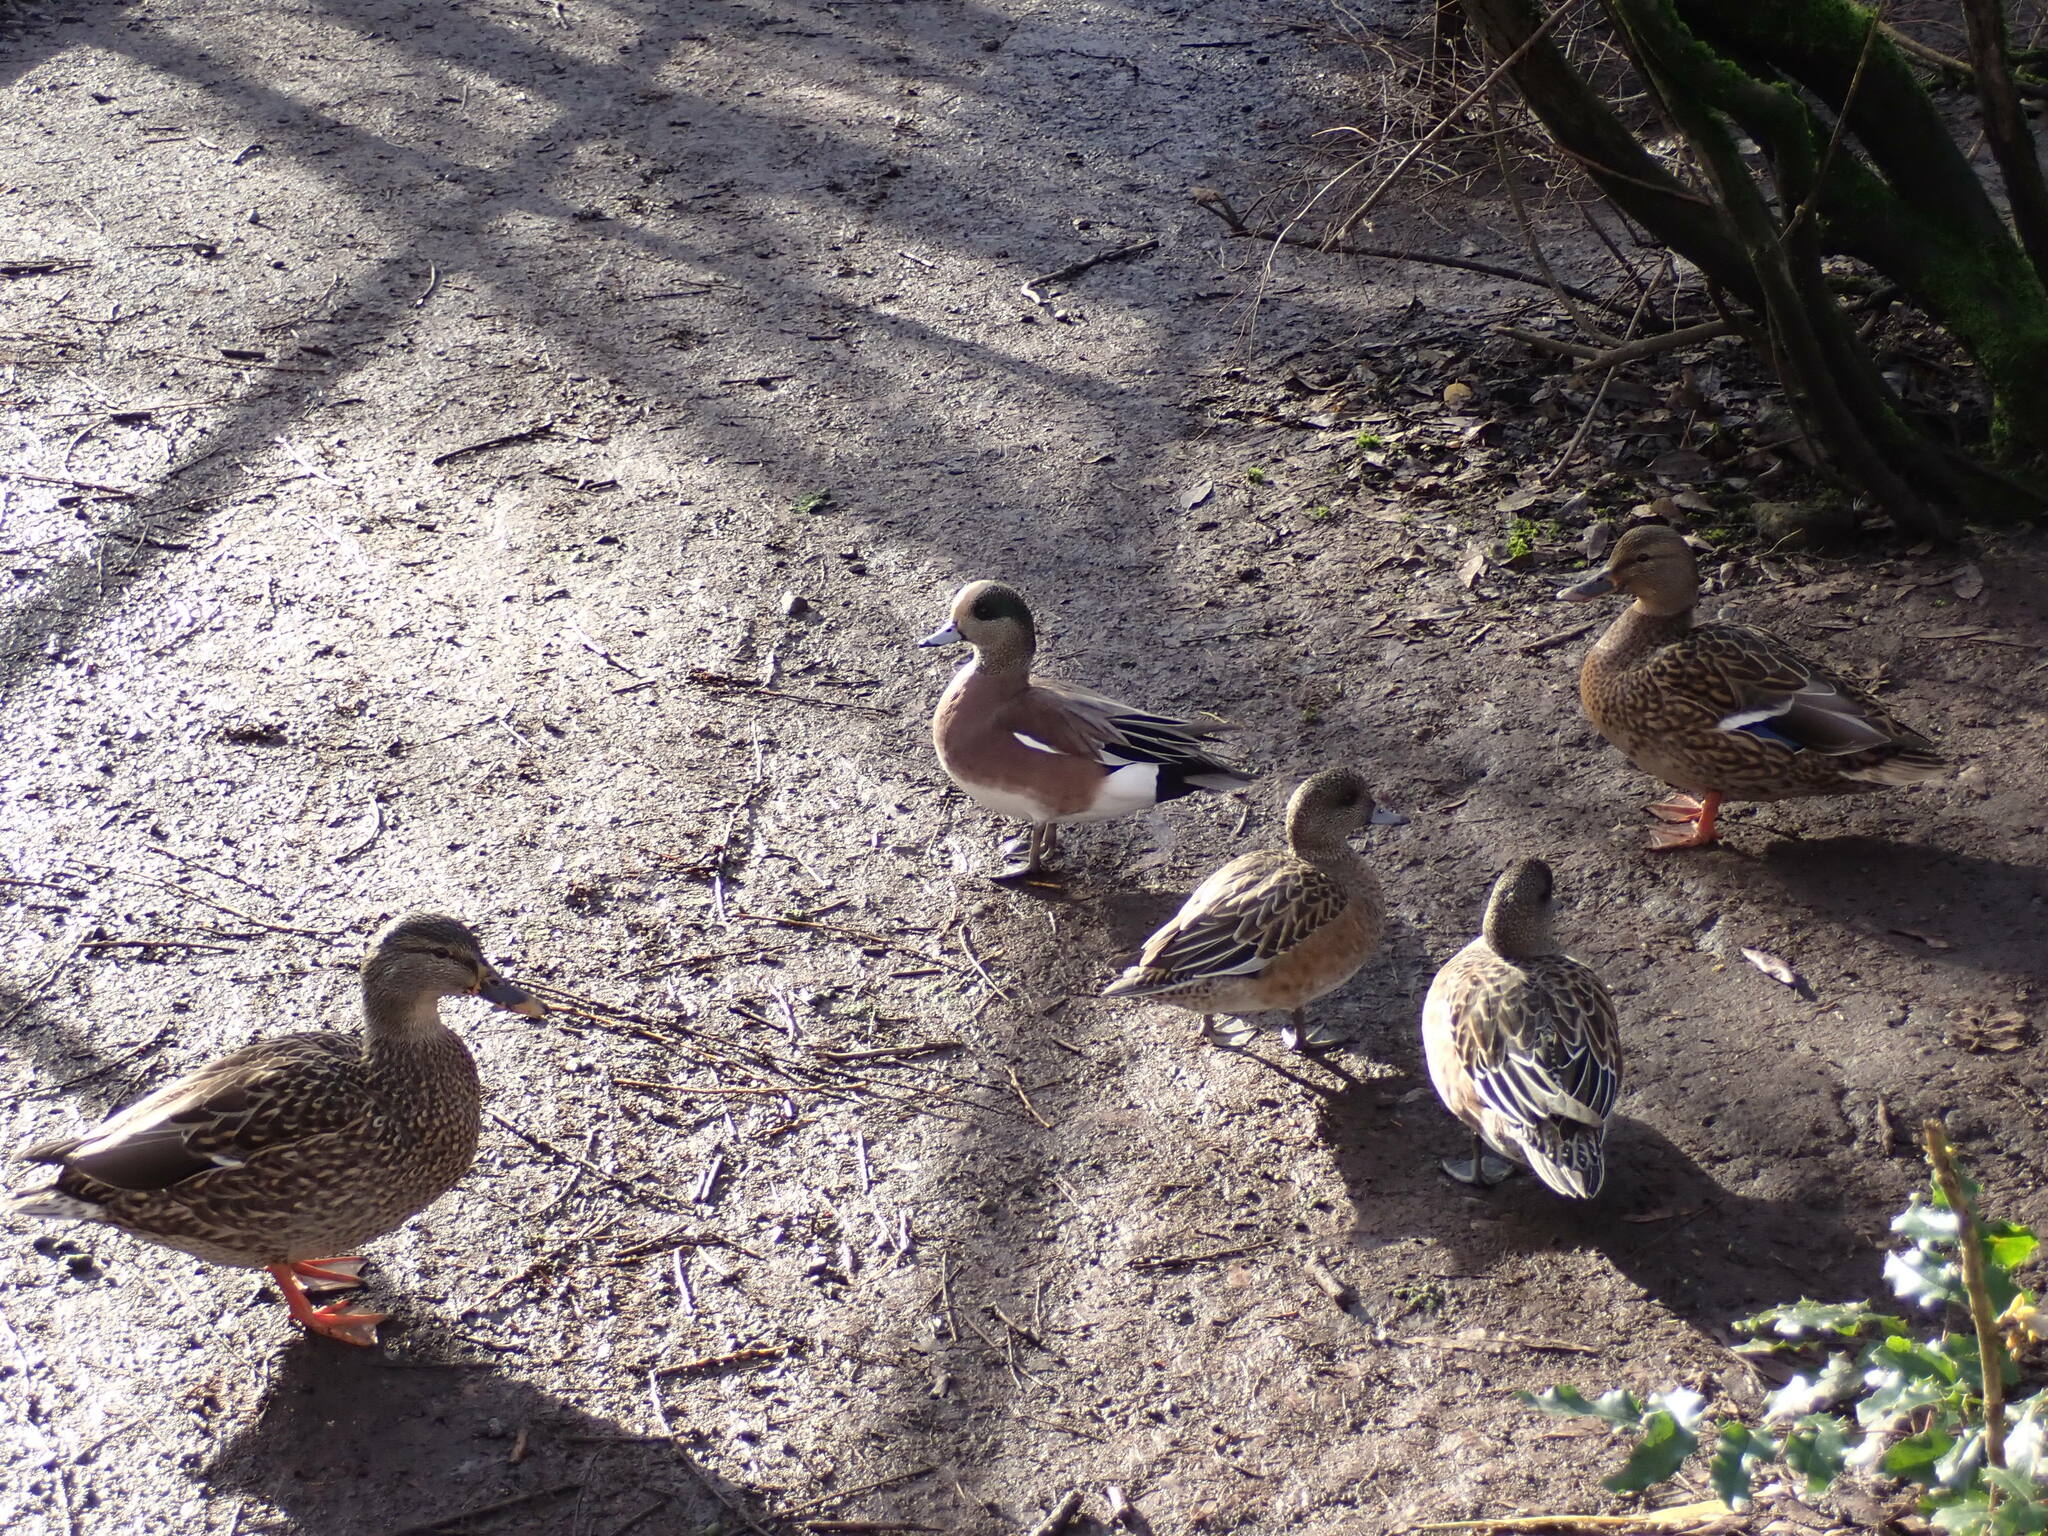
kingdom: Animalia
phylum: Chordata
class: Aves
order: Anseriformes
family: Anatidae
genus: Mareca
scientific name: Mareca americana
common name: American wigeon
